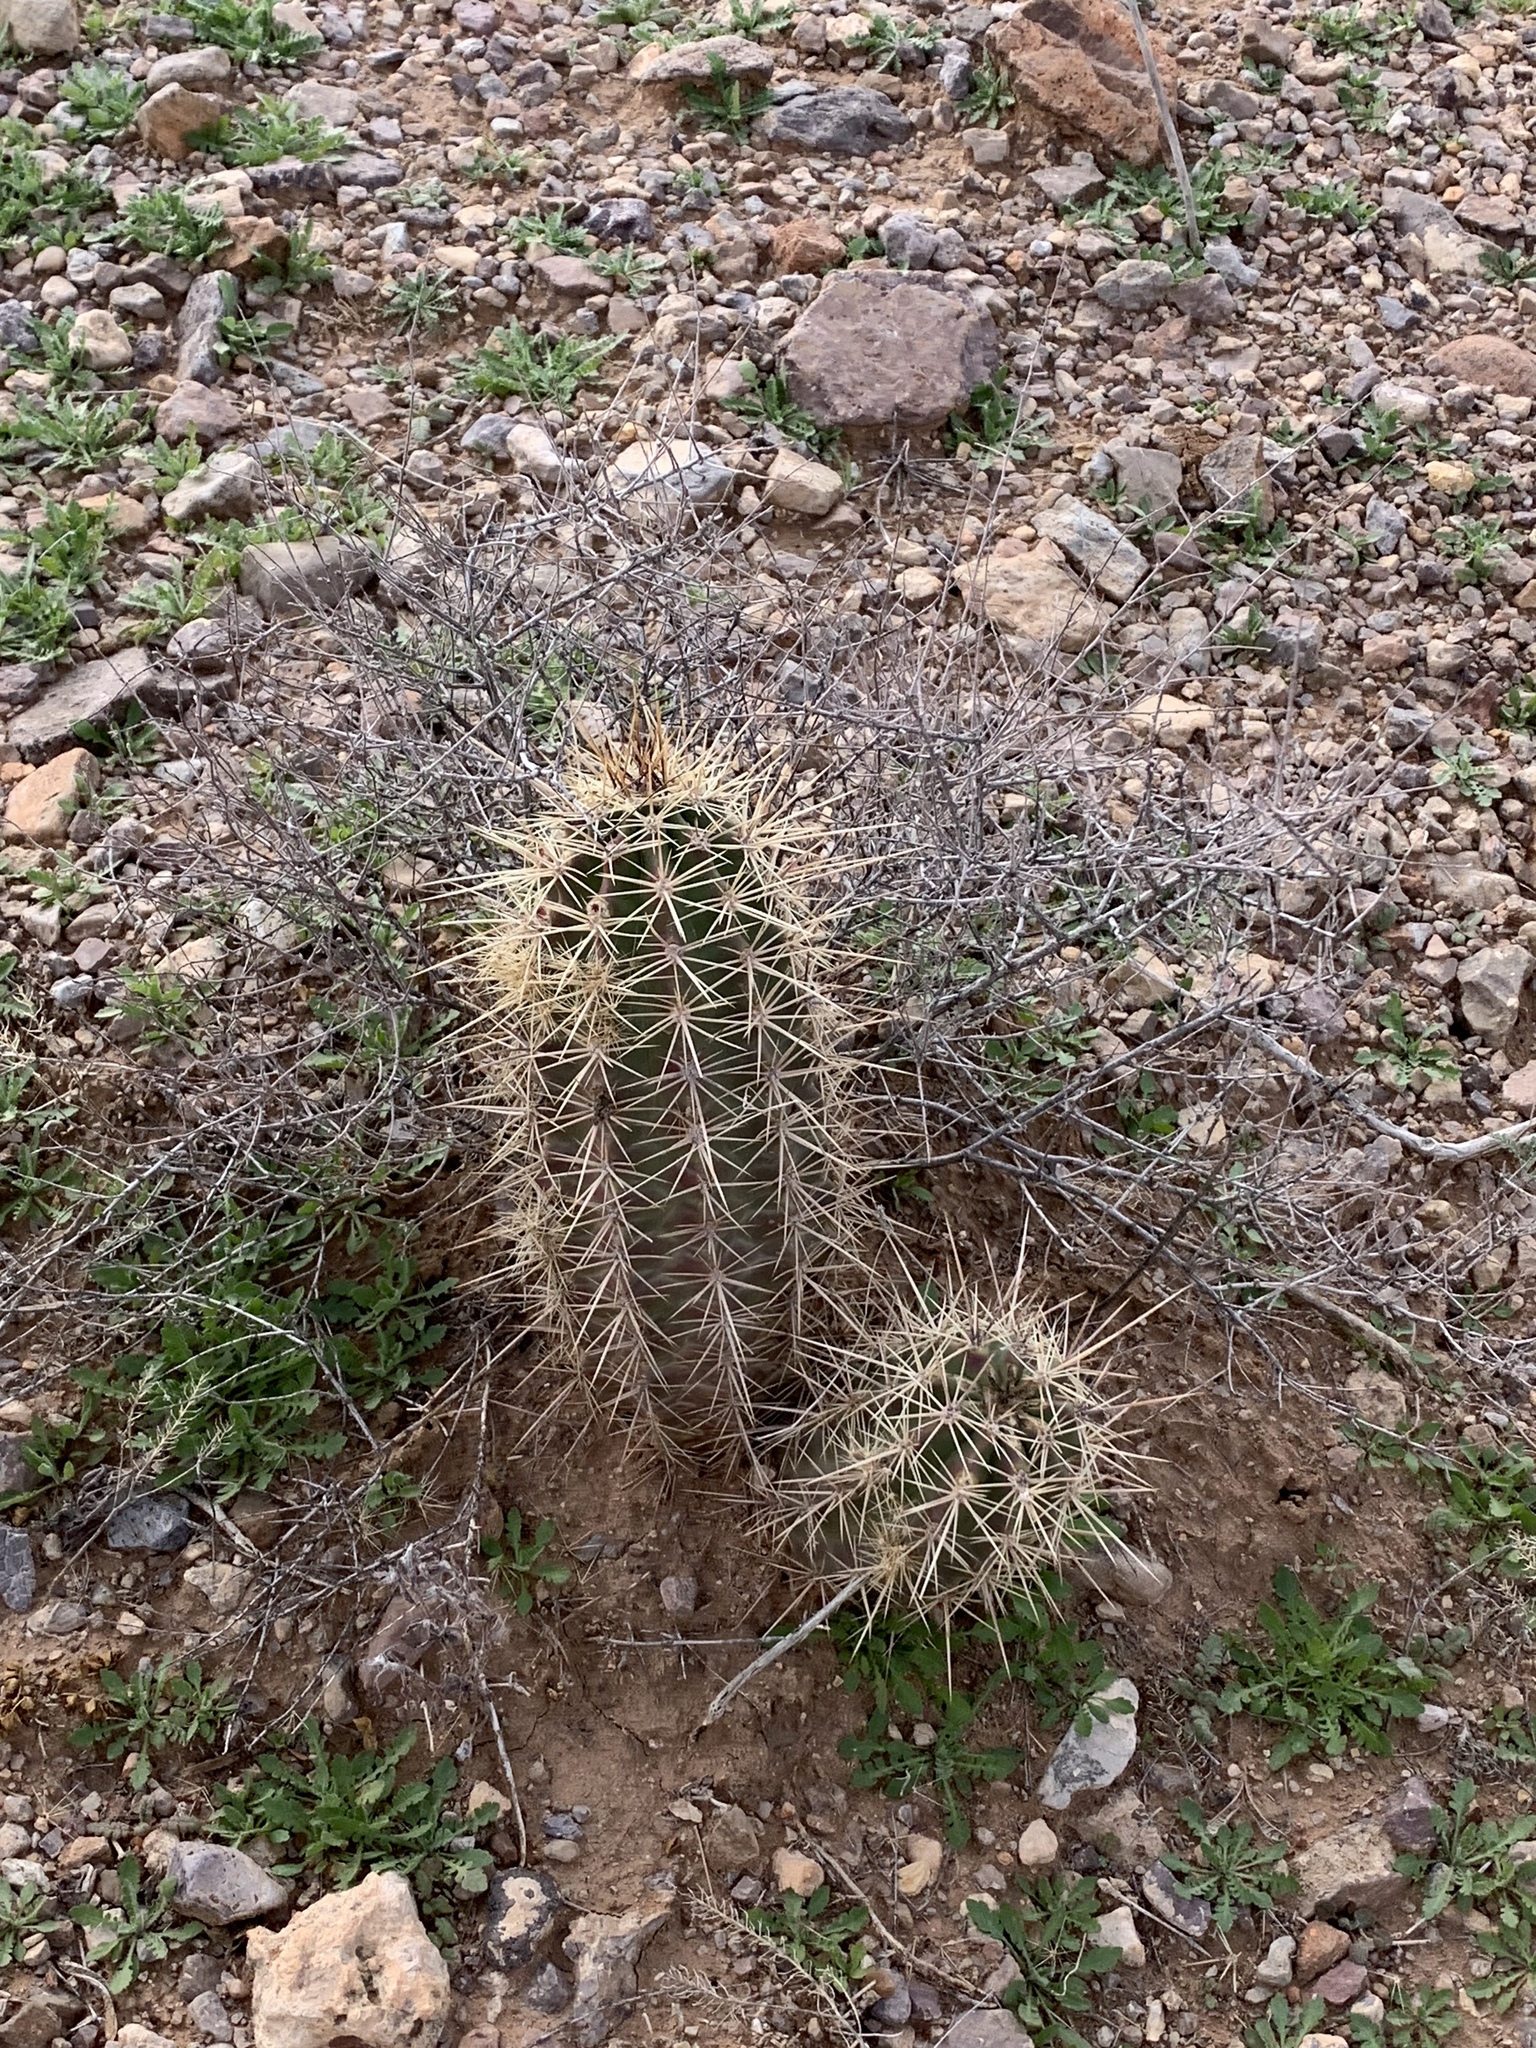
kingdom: Plantae
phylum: Tracheophyta
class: Magnoliopsida
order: Caryophyllales
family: Cactaceae
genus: Echinocereus
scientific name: Echinocereus coccineus
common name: Scarlet hedgehog cactus
